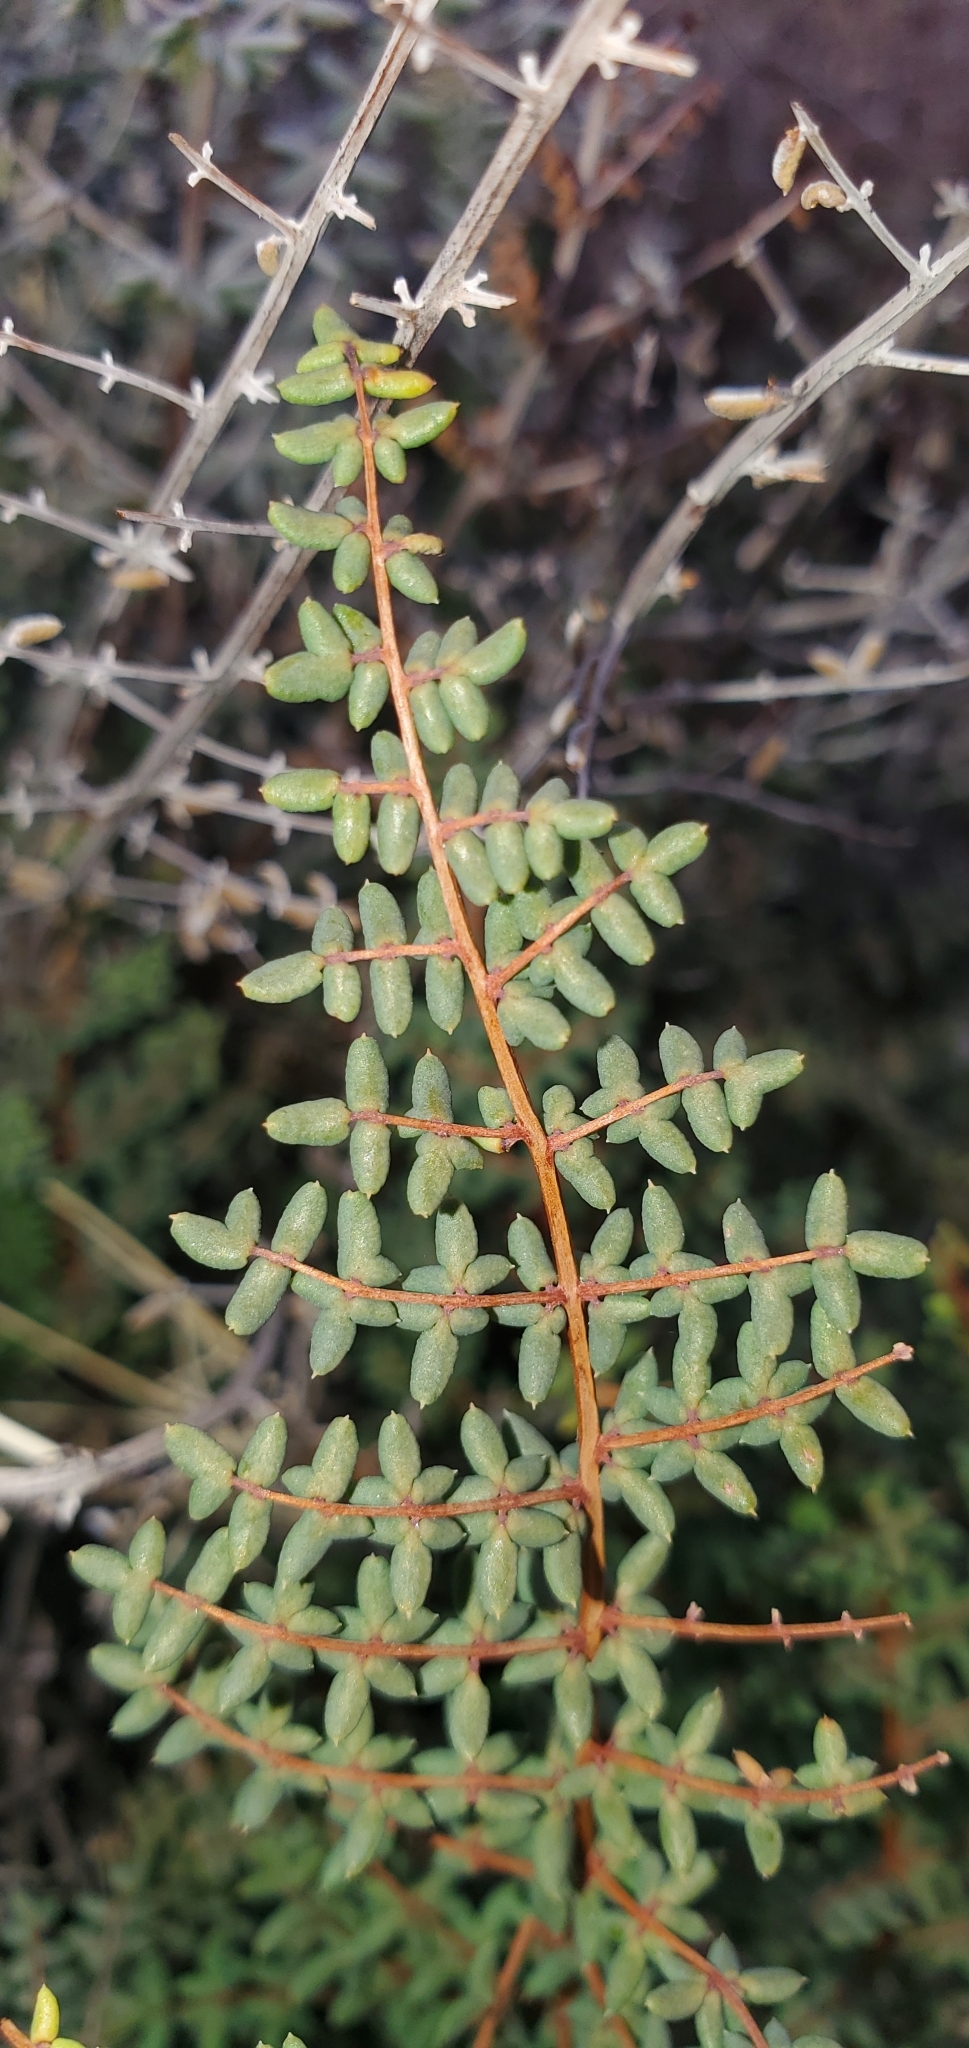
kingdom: Plantae
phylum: Tracheophyta
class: Polypodiopsida
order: Polypodiales
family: Pteridaceae
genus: Pellaea
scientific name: Pellaea mucronata
